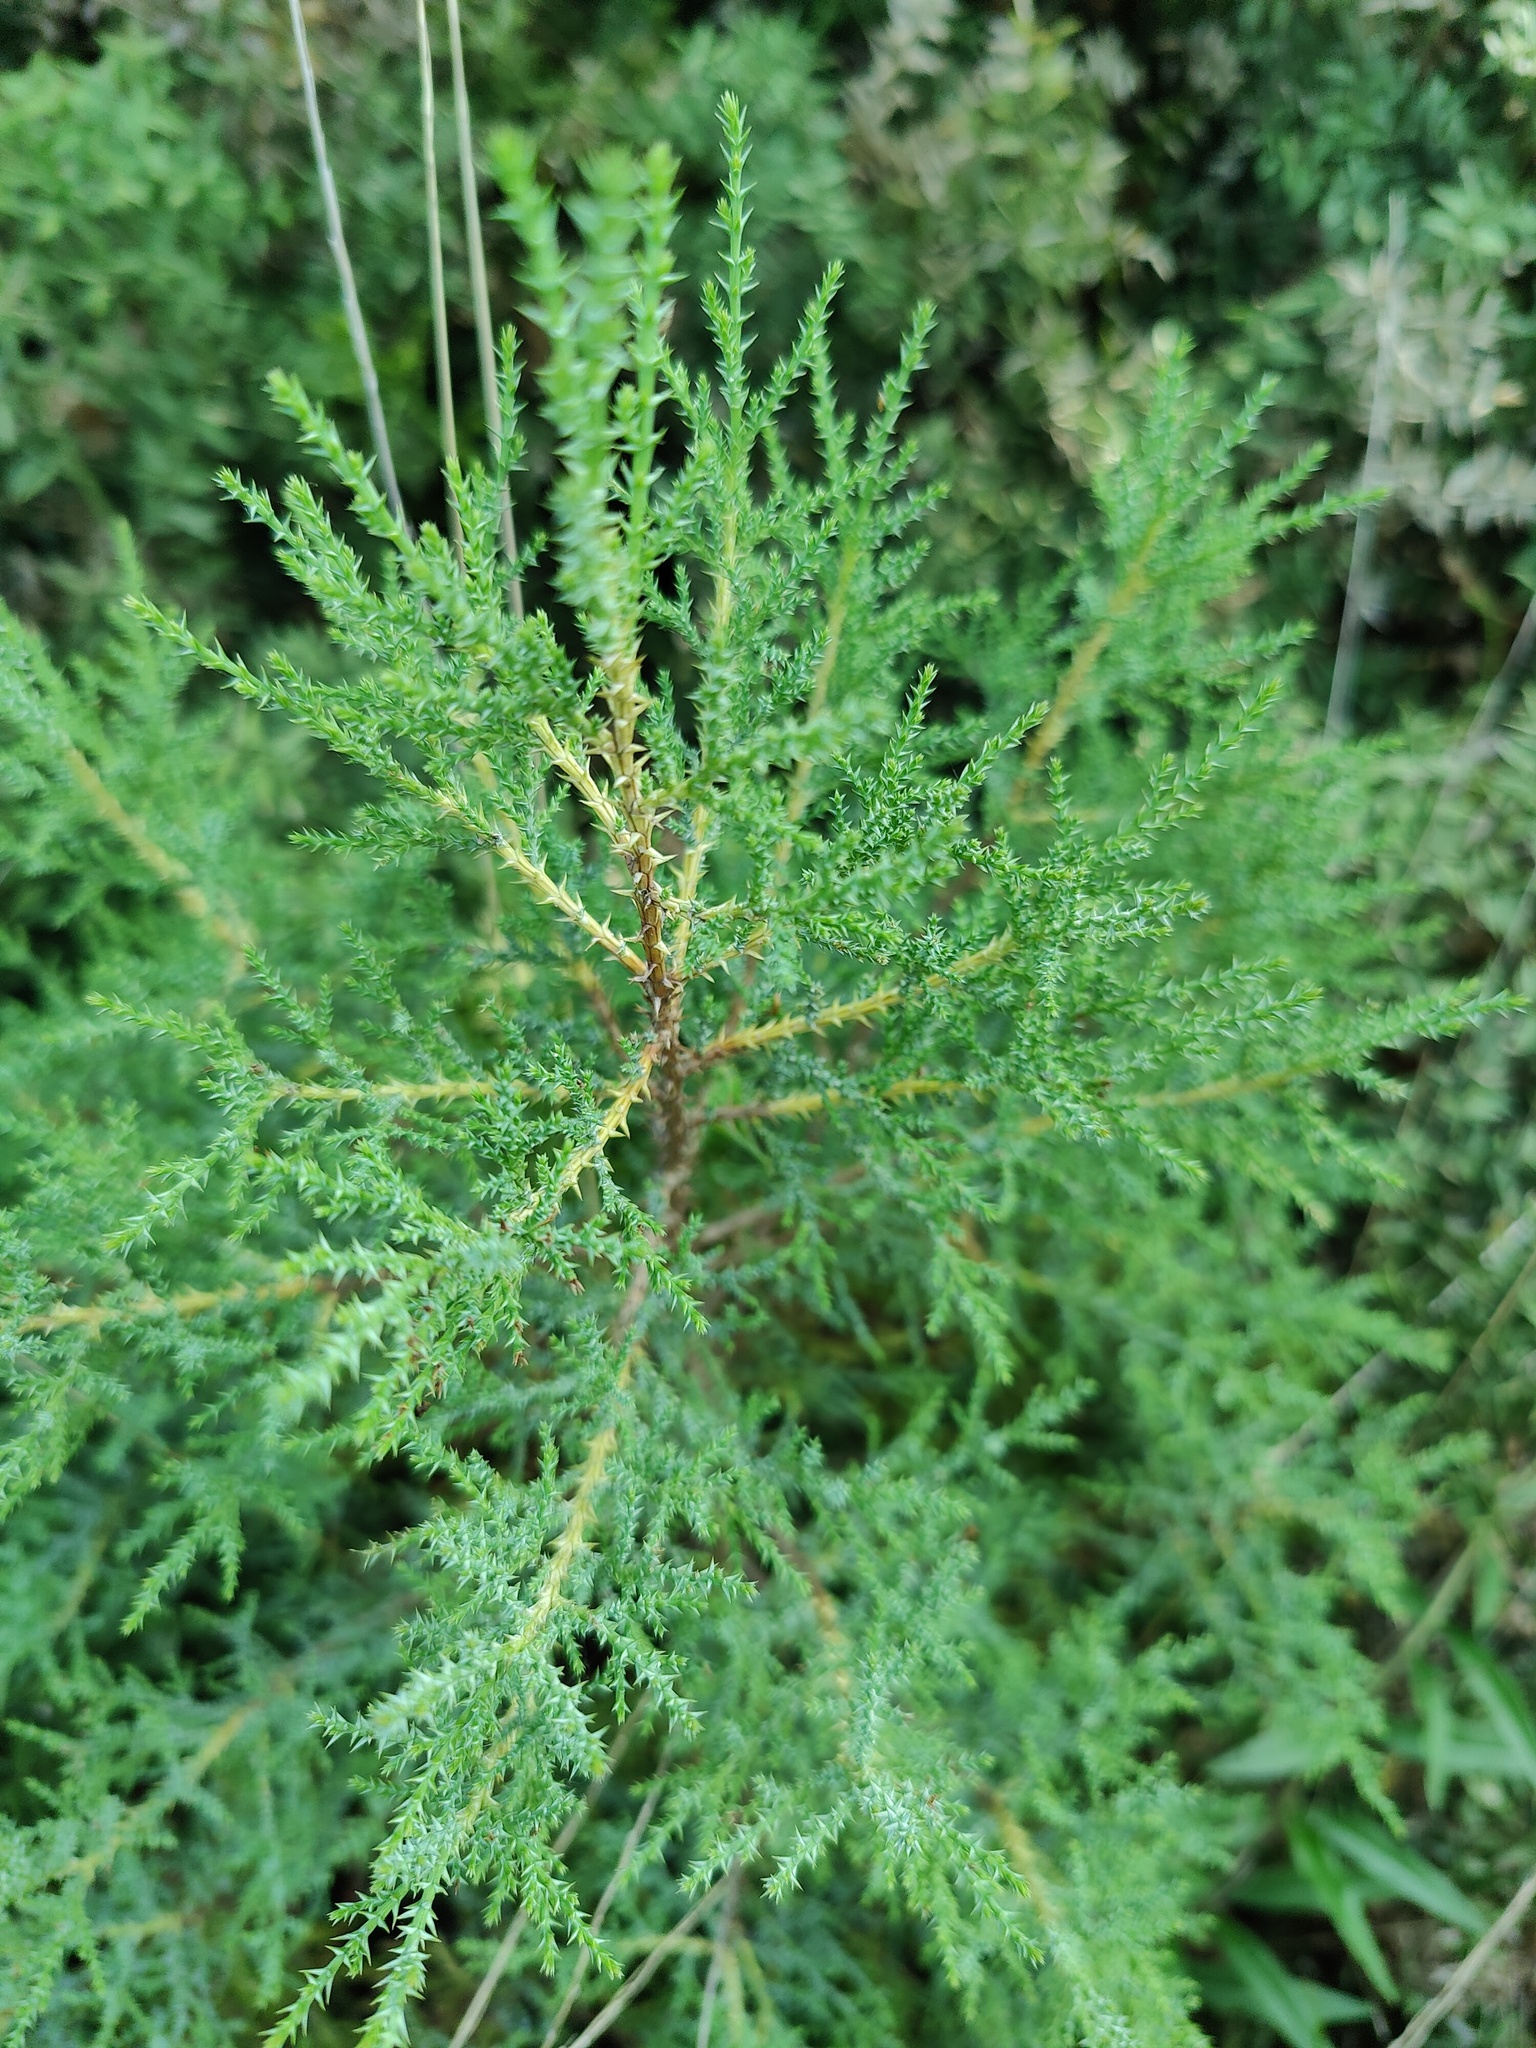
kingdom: Plantae
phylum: Tracheophyta
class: Pinopsida
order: Pinales
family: Cupressaceae
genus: Juniperus
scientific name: Juniperus foetidissima
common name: Stinking juniper
